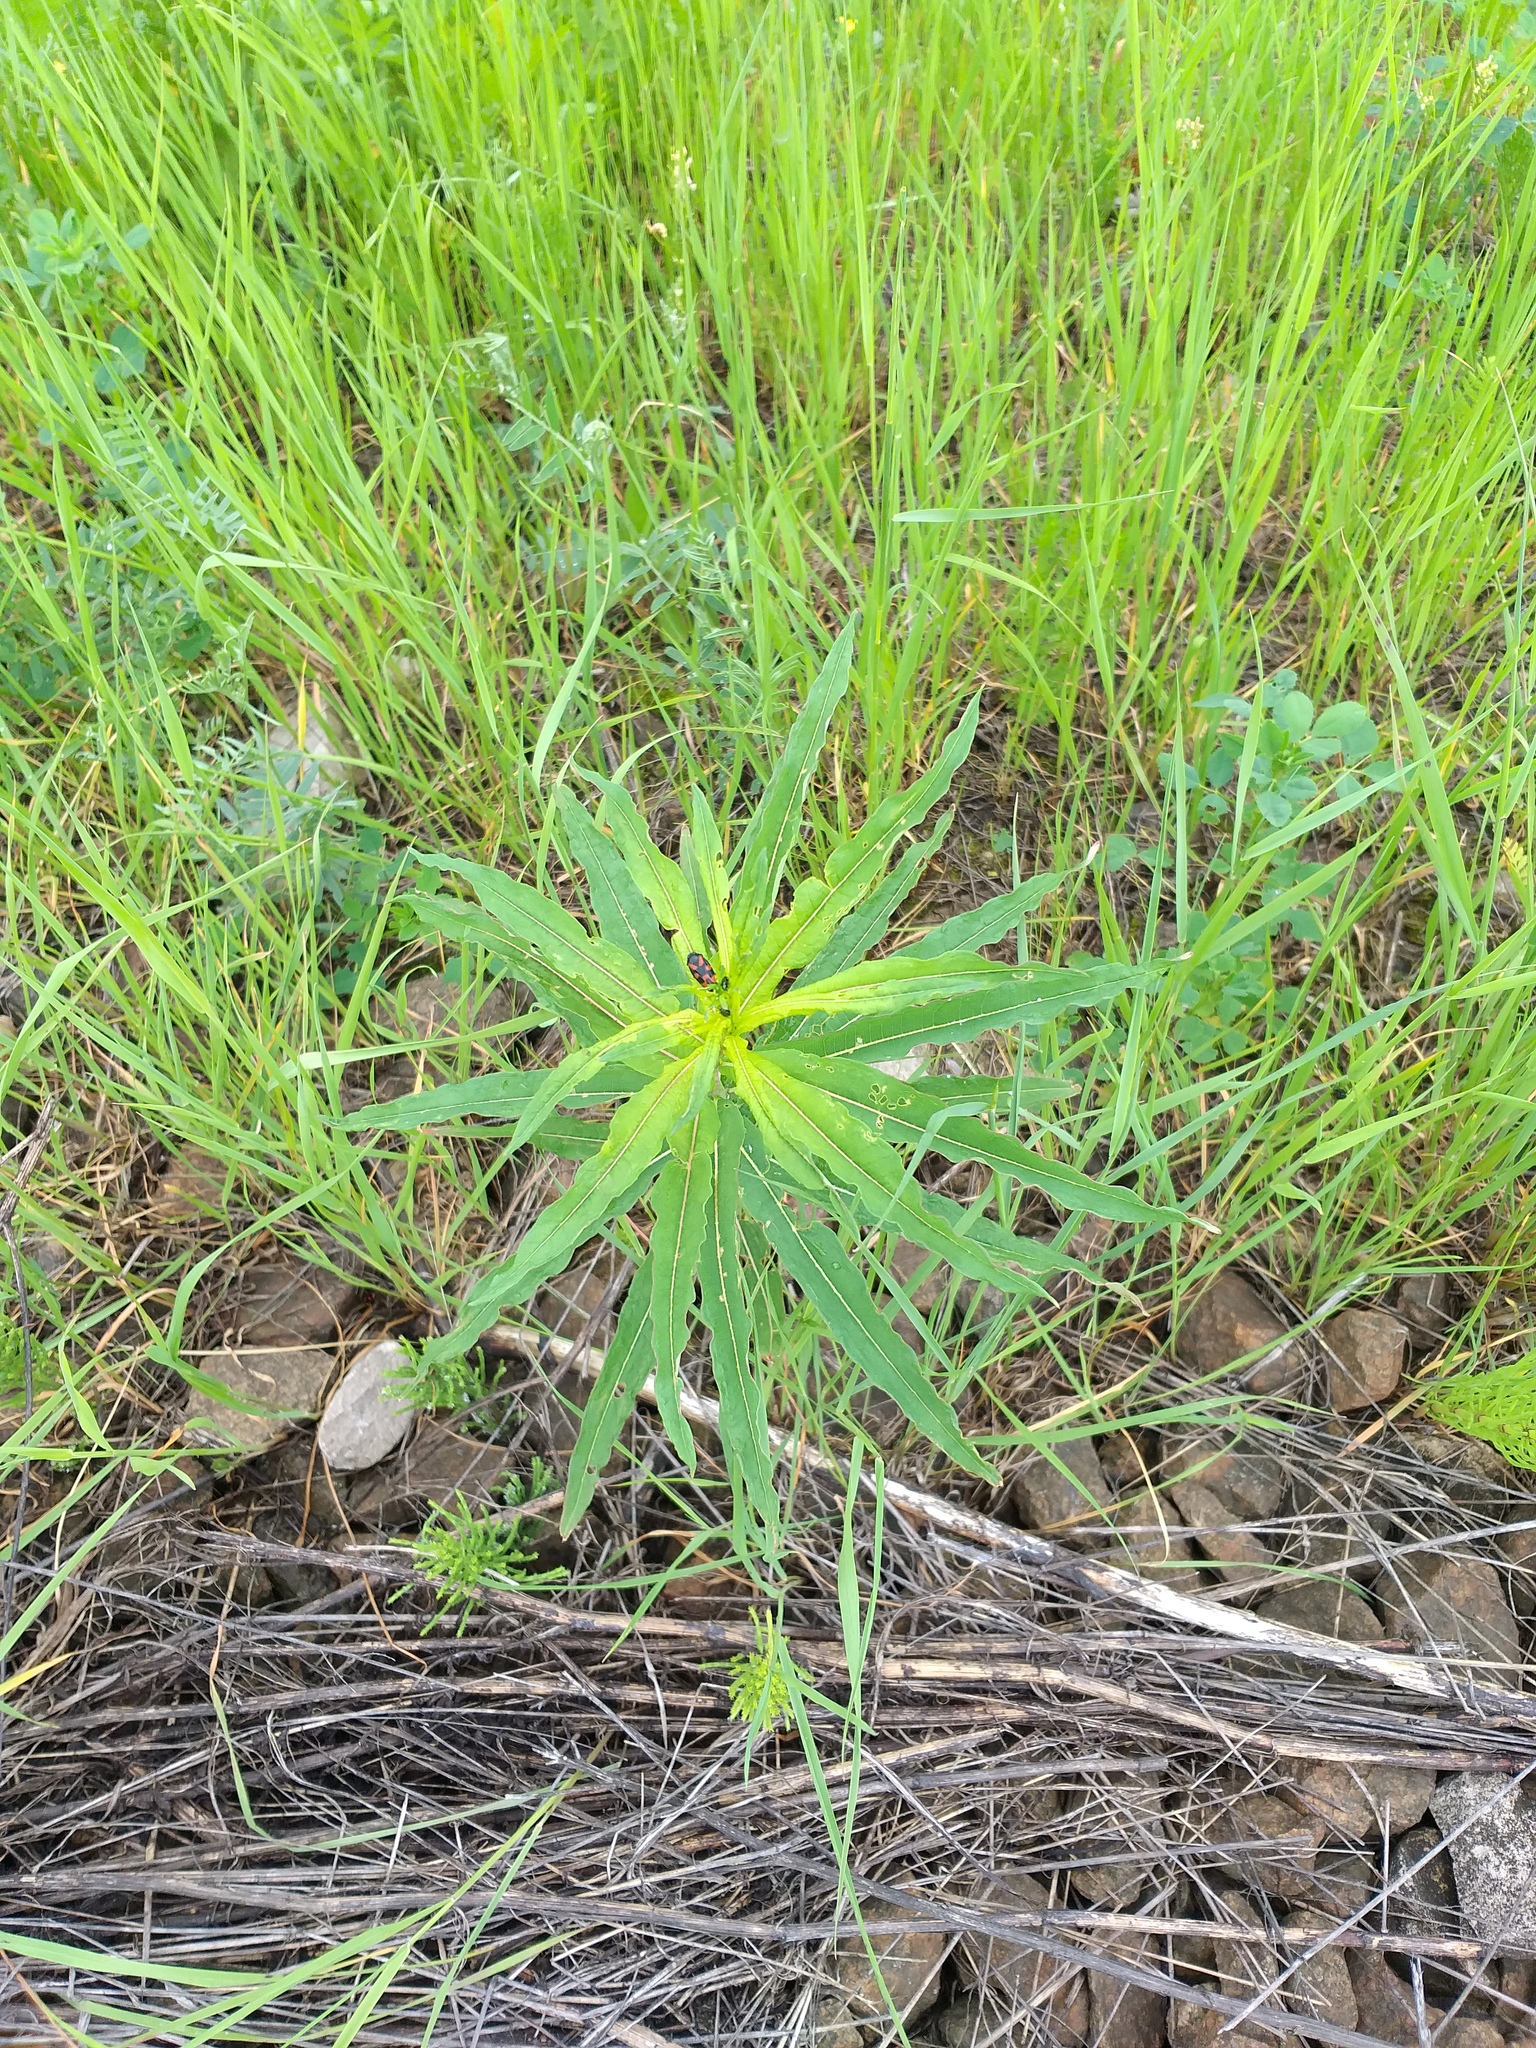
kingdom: Plantae
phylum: Tracheophyta
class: Magnoliopsida
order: Myrtales
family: Onagraceae
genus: Chamaenerion
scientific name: Chamaenerion angustifolium
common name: Fireweed
